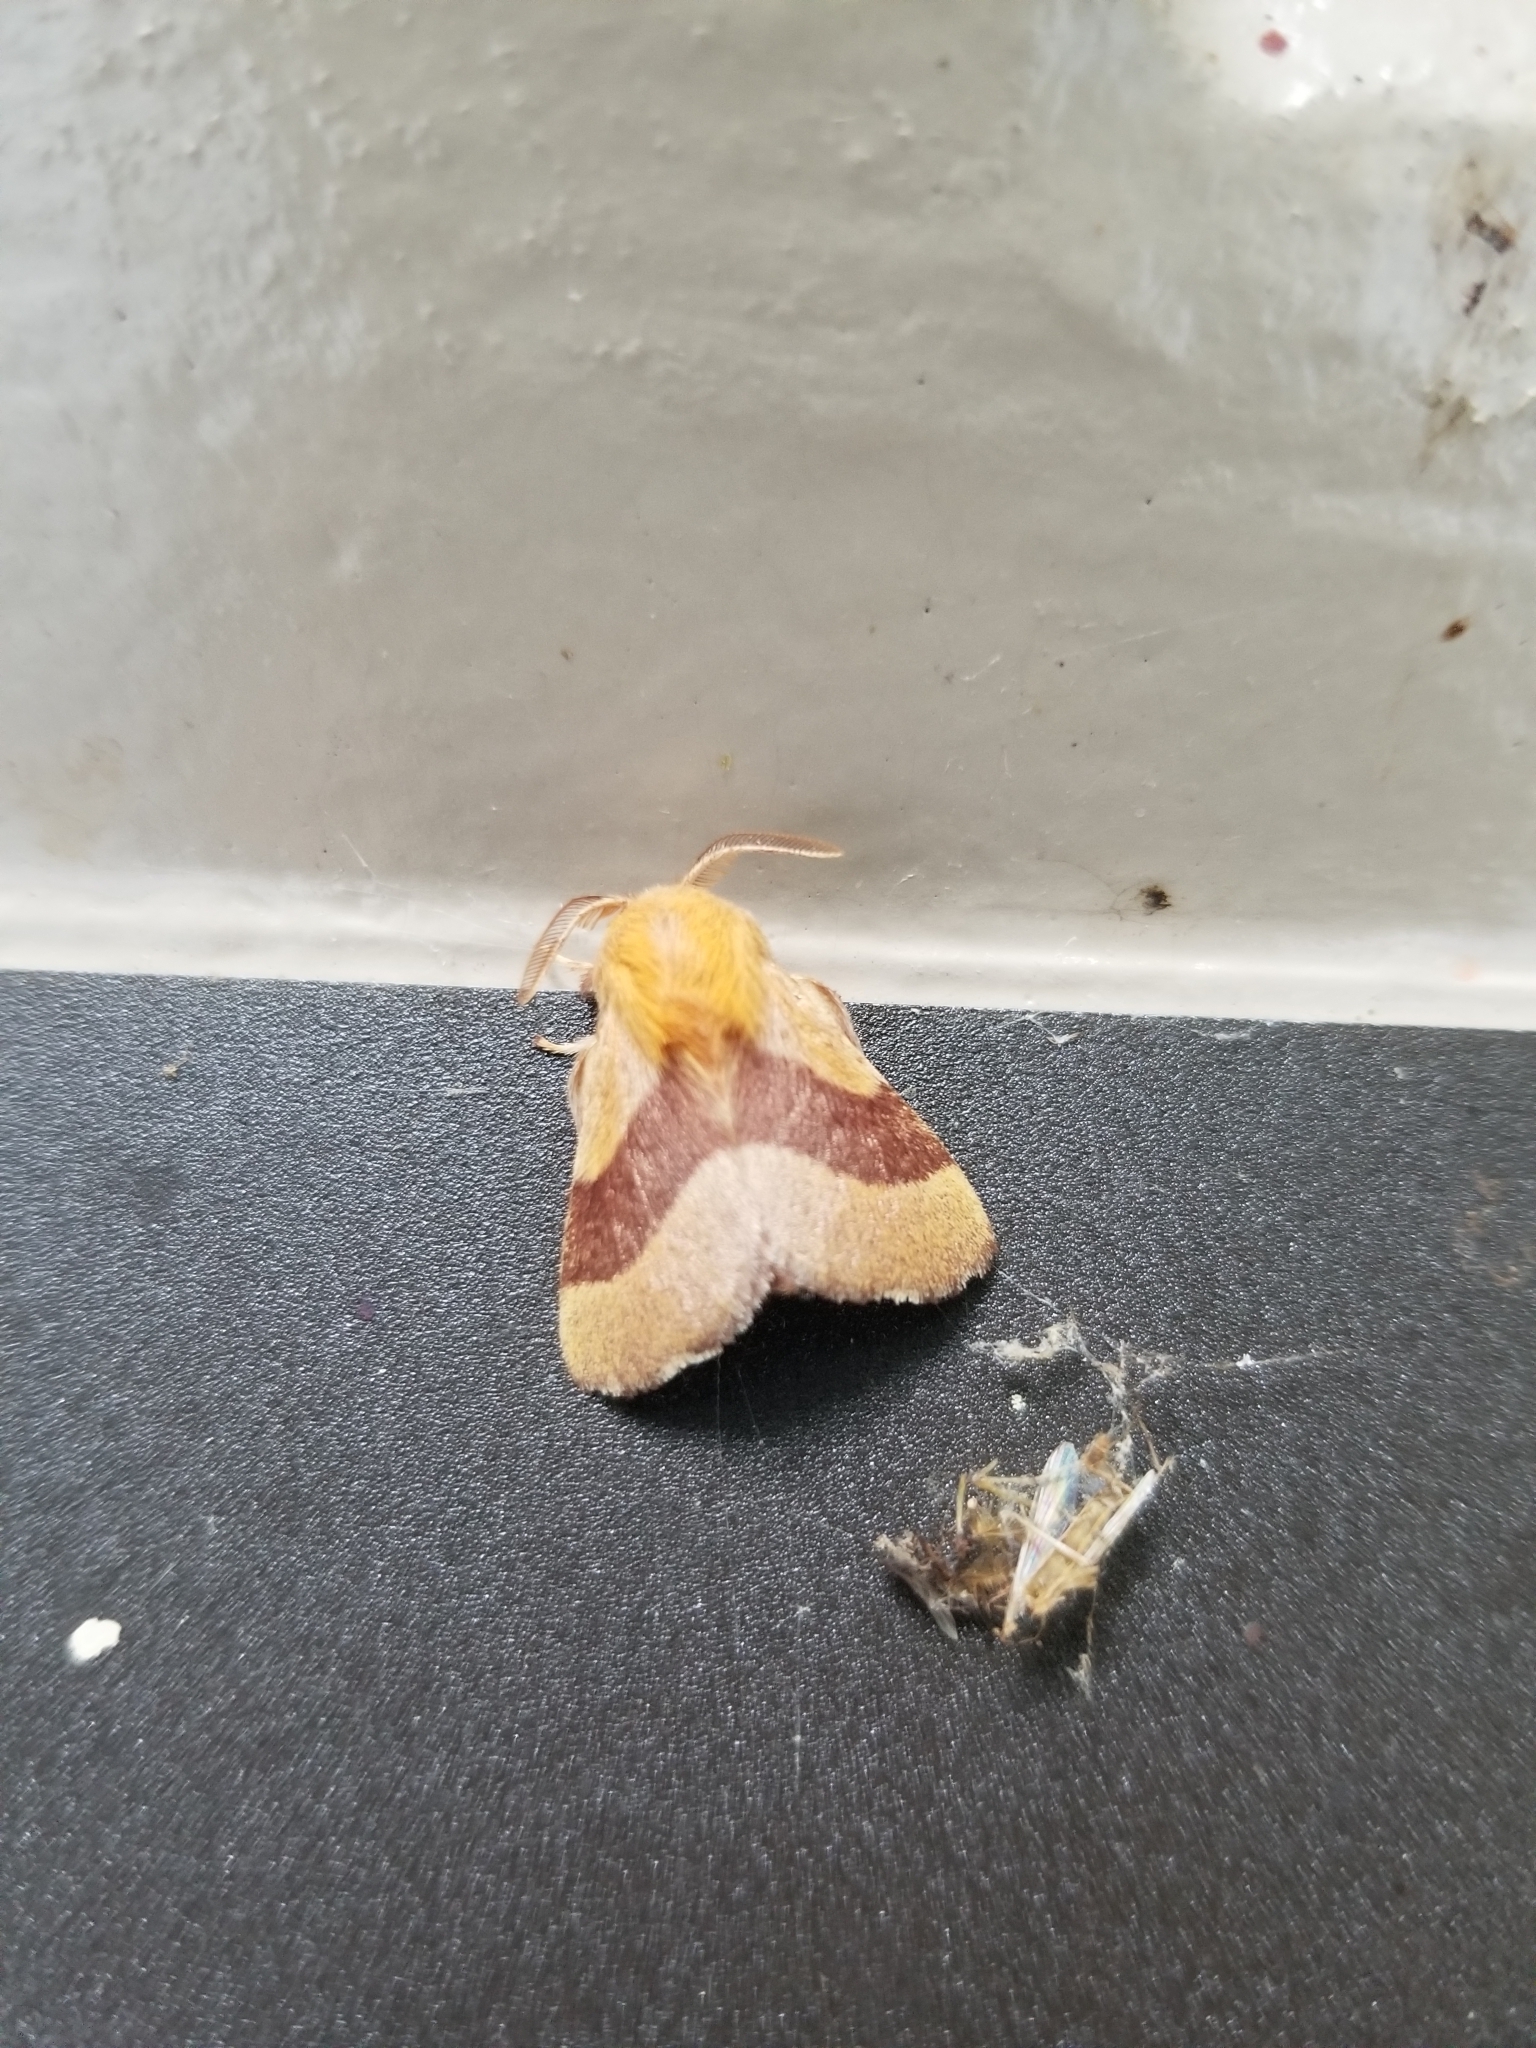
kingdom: Animalia
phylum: Arthropoda
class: Insecta
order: Lepidoptera
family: Lasiocampidae
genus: Malacosoma
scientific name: Malacosoma disstria
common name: Forest tent caterpillar
